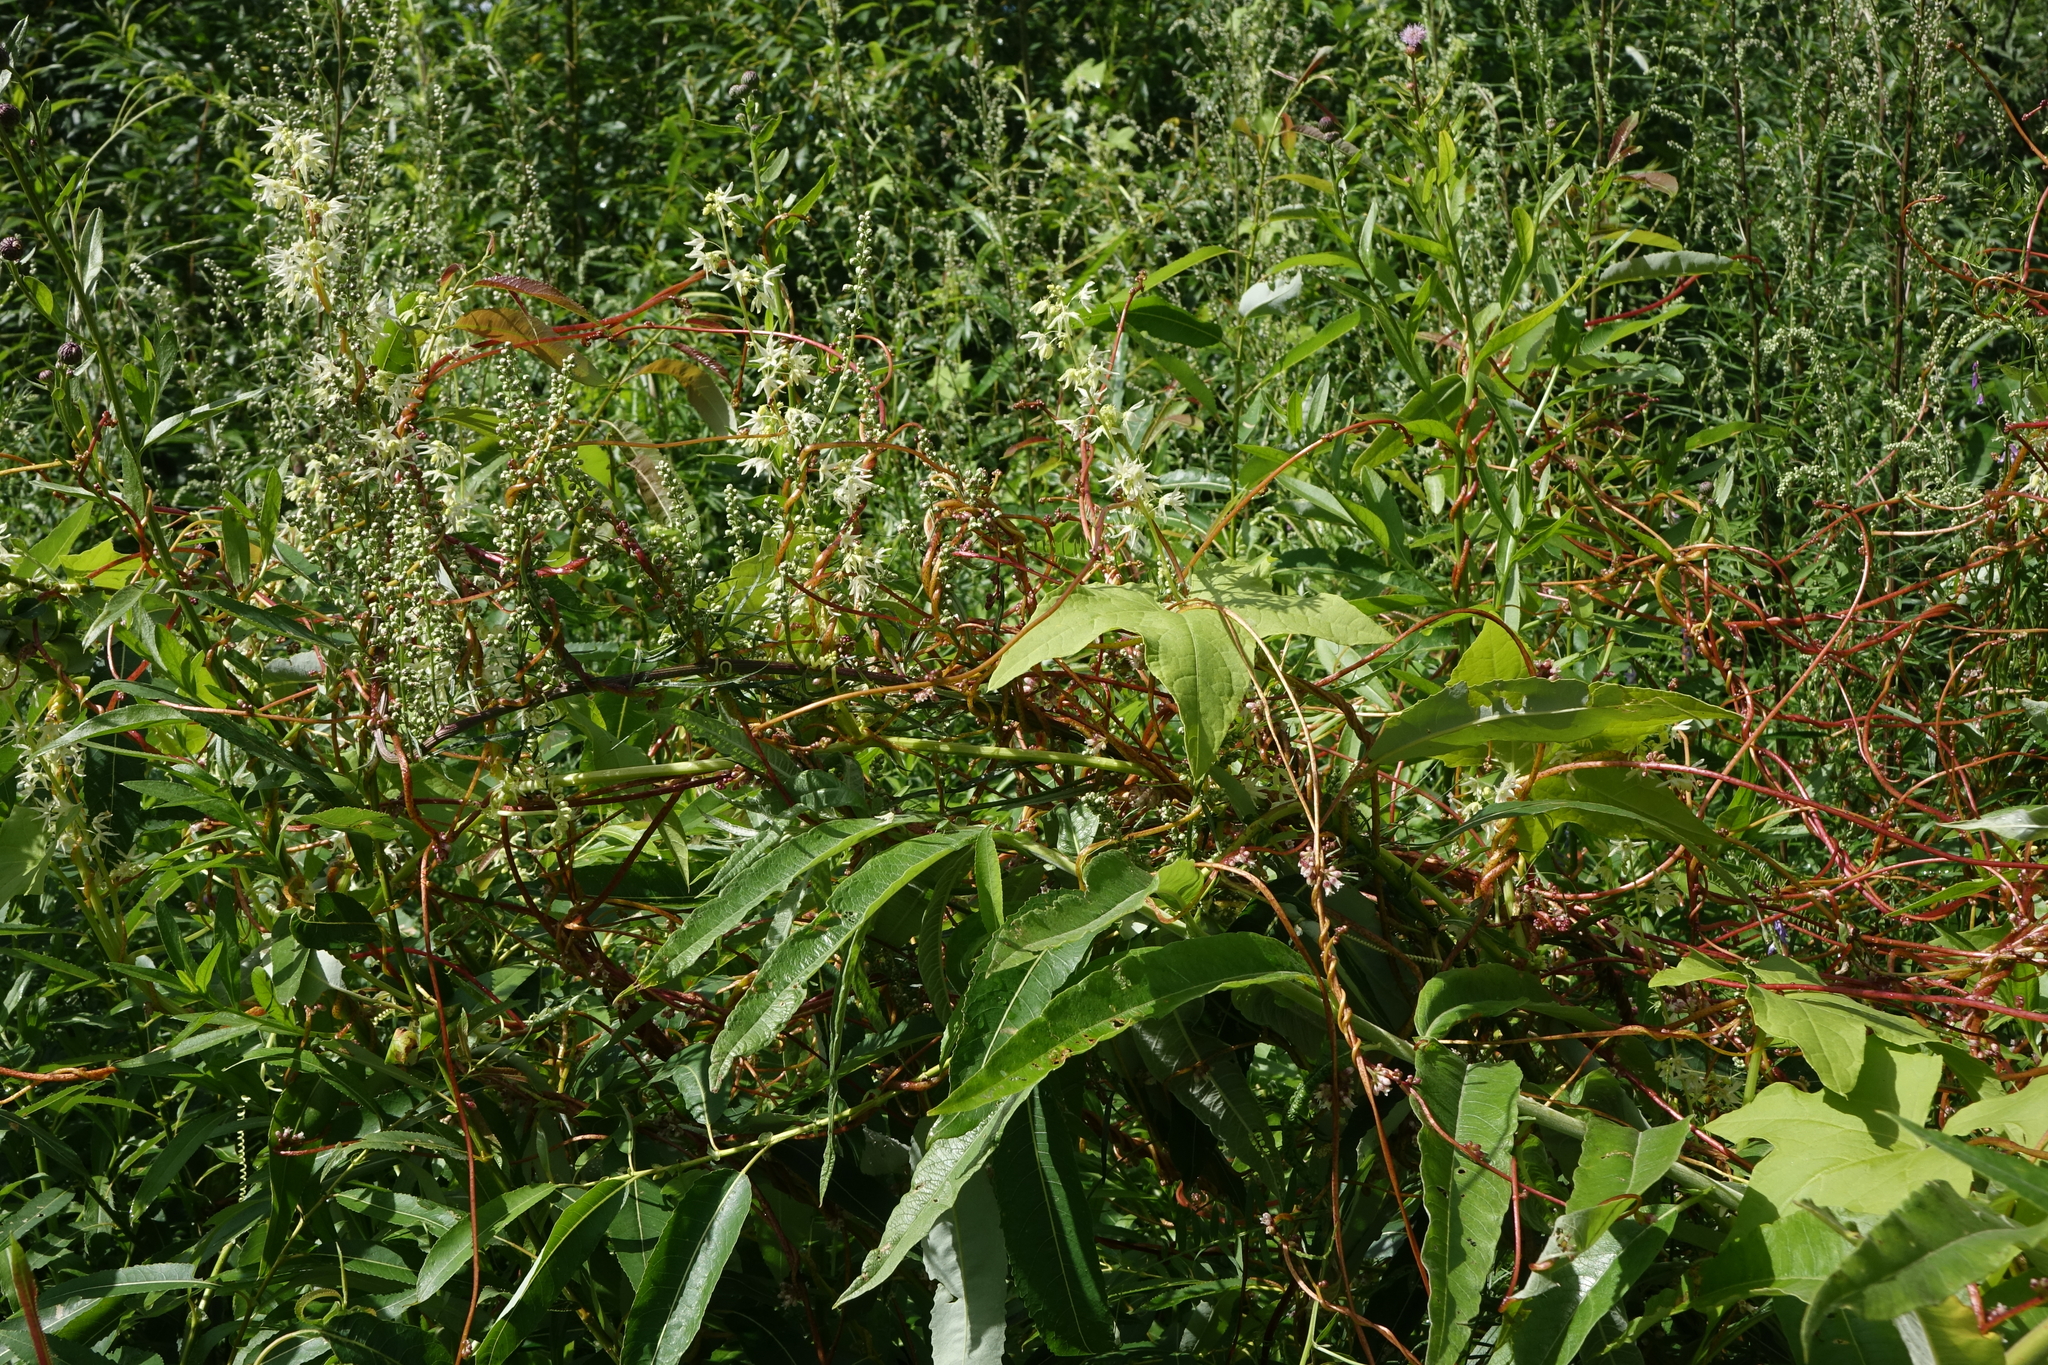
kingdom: Plantae
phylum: Tracheophyta
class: Magnoliopsida
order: Solanales
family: Convolvulaceae
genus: Cuscuta
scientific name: Cuscuta europaea
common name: Greater dodder
